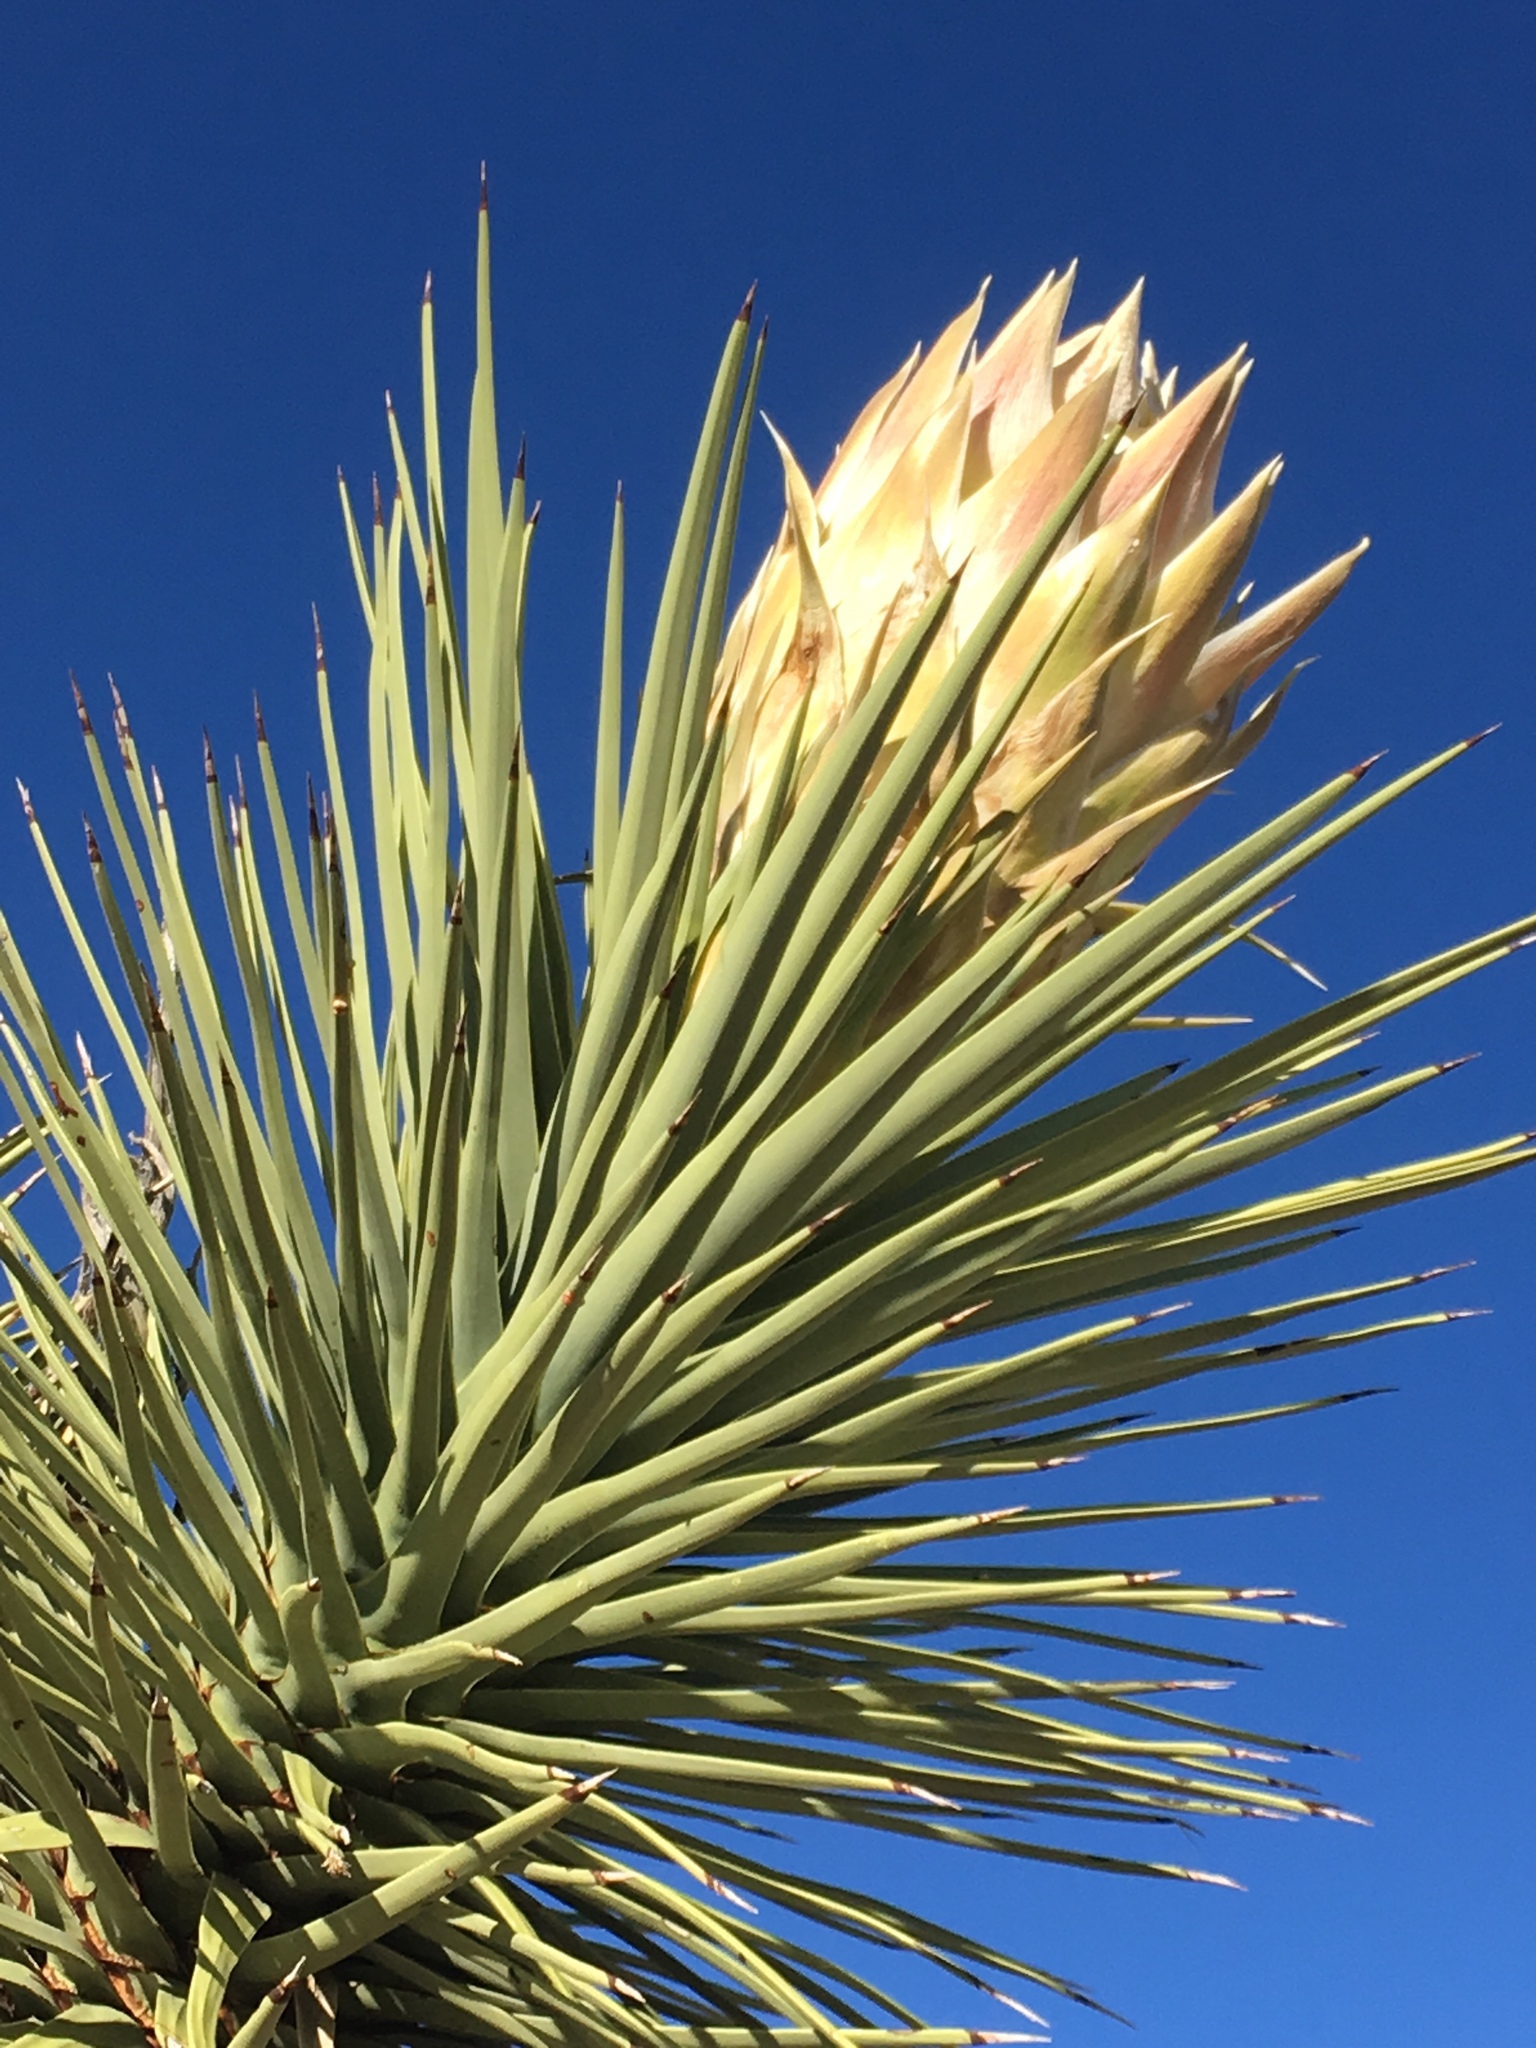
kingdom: Plantae
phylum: Tracheophyta
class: Liliopsida
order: Asparagales
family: Asparagaceae
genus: Yucca
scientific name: Yucca brevifolia
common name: Joshua tree
